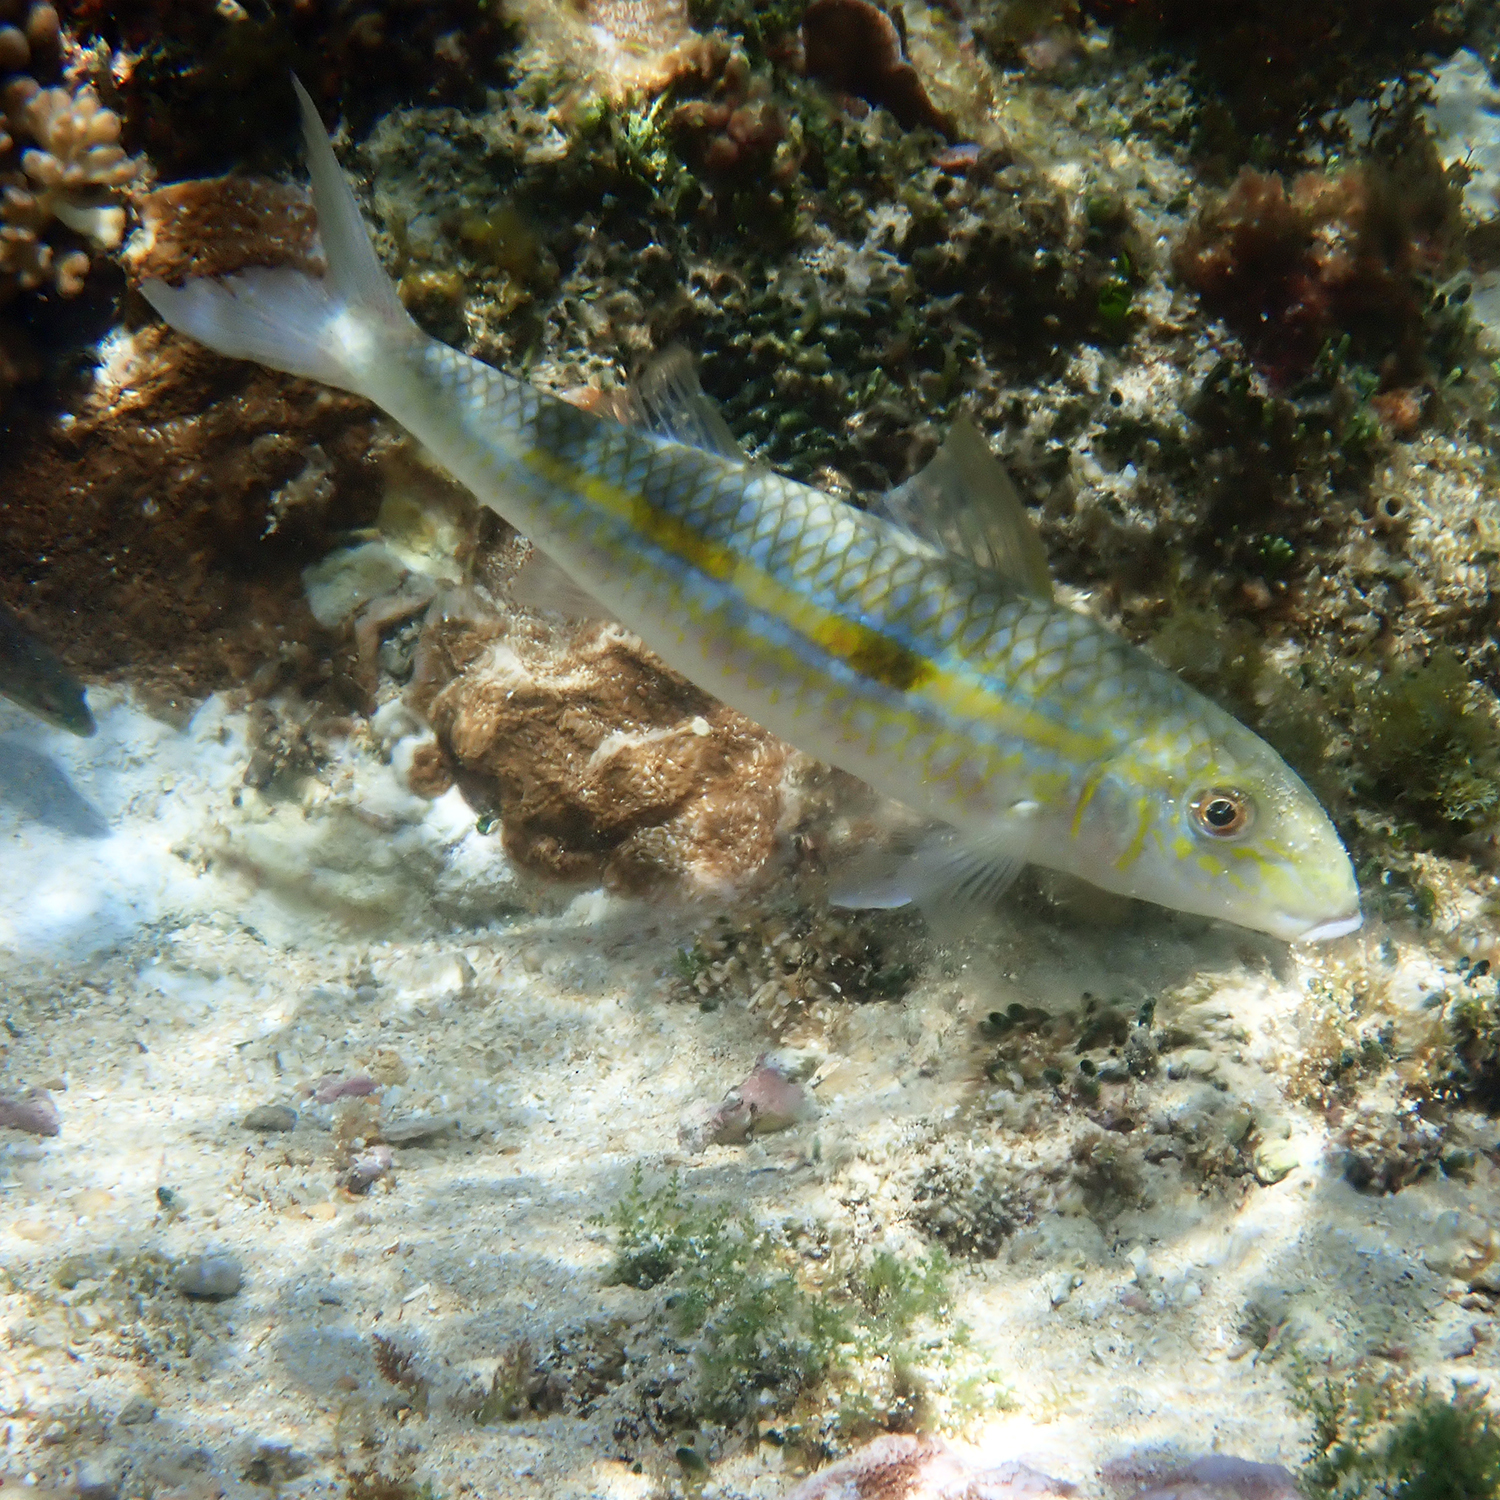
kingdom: Animalia
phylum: Chordata
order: Perciformes
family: Mullidae
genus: Mulloidichthys
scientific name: Mulloidichthys flavolineatus
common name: Yellowstripe goatfish
